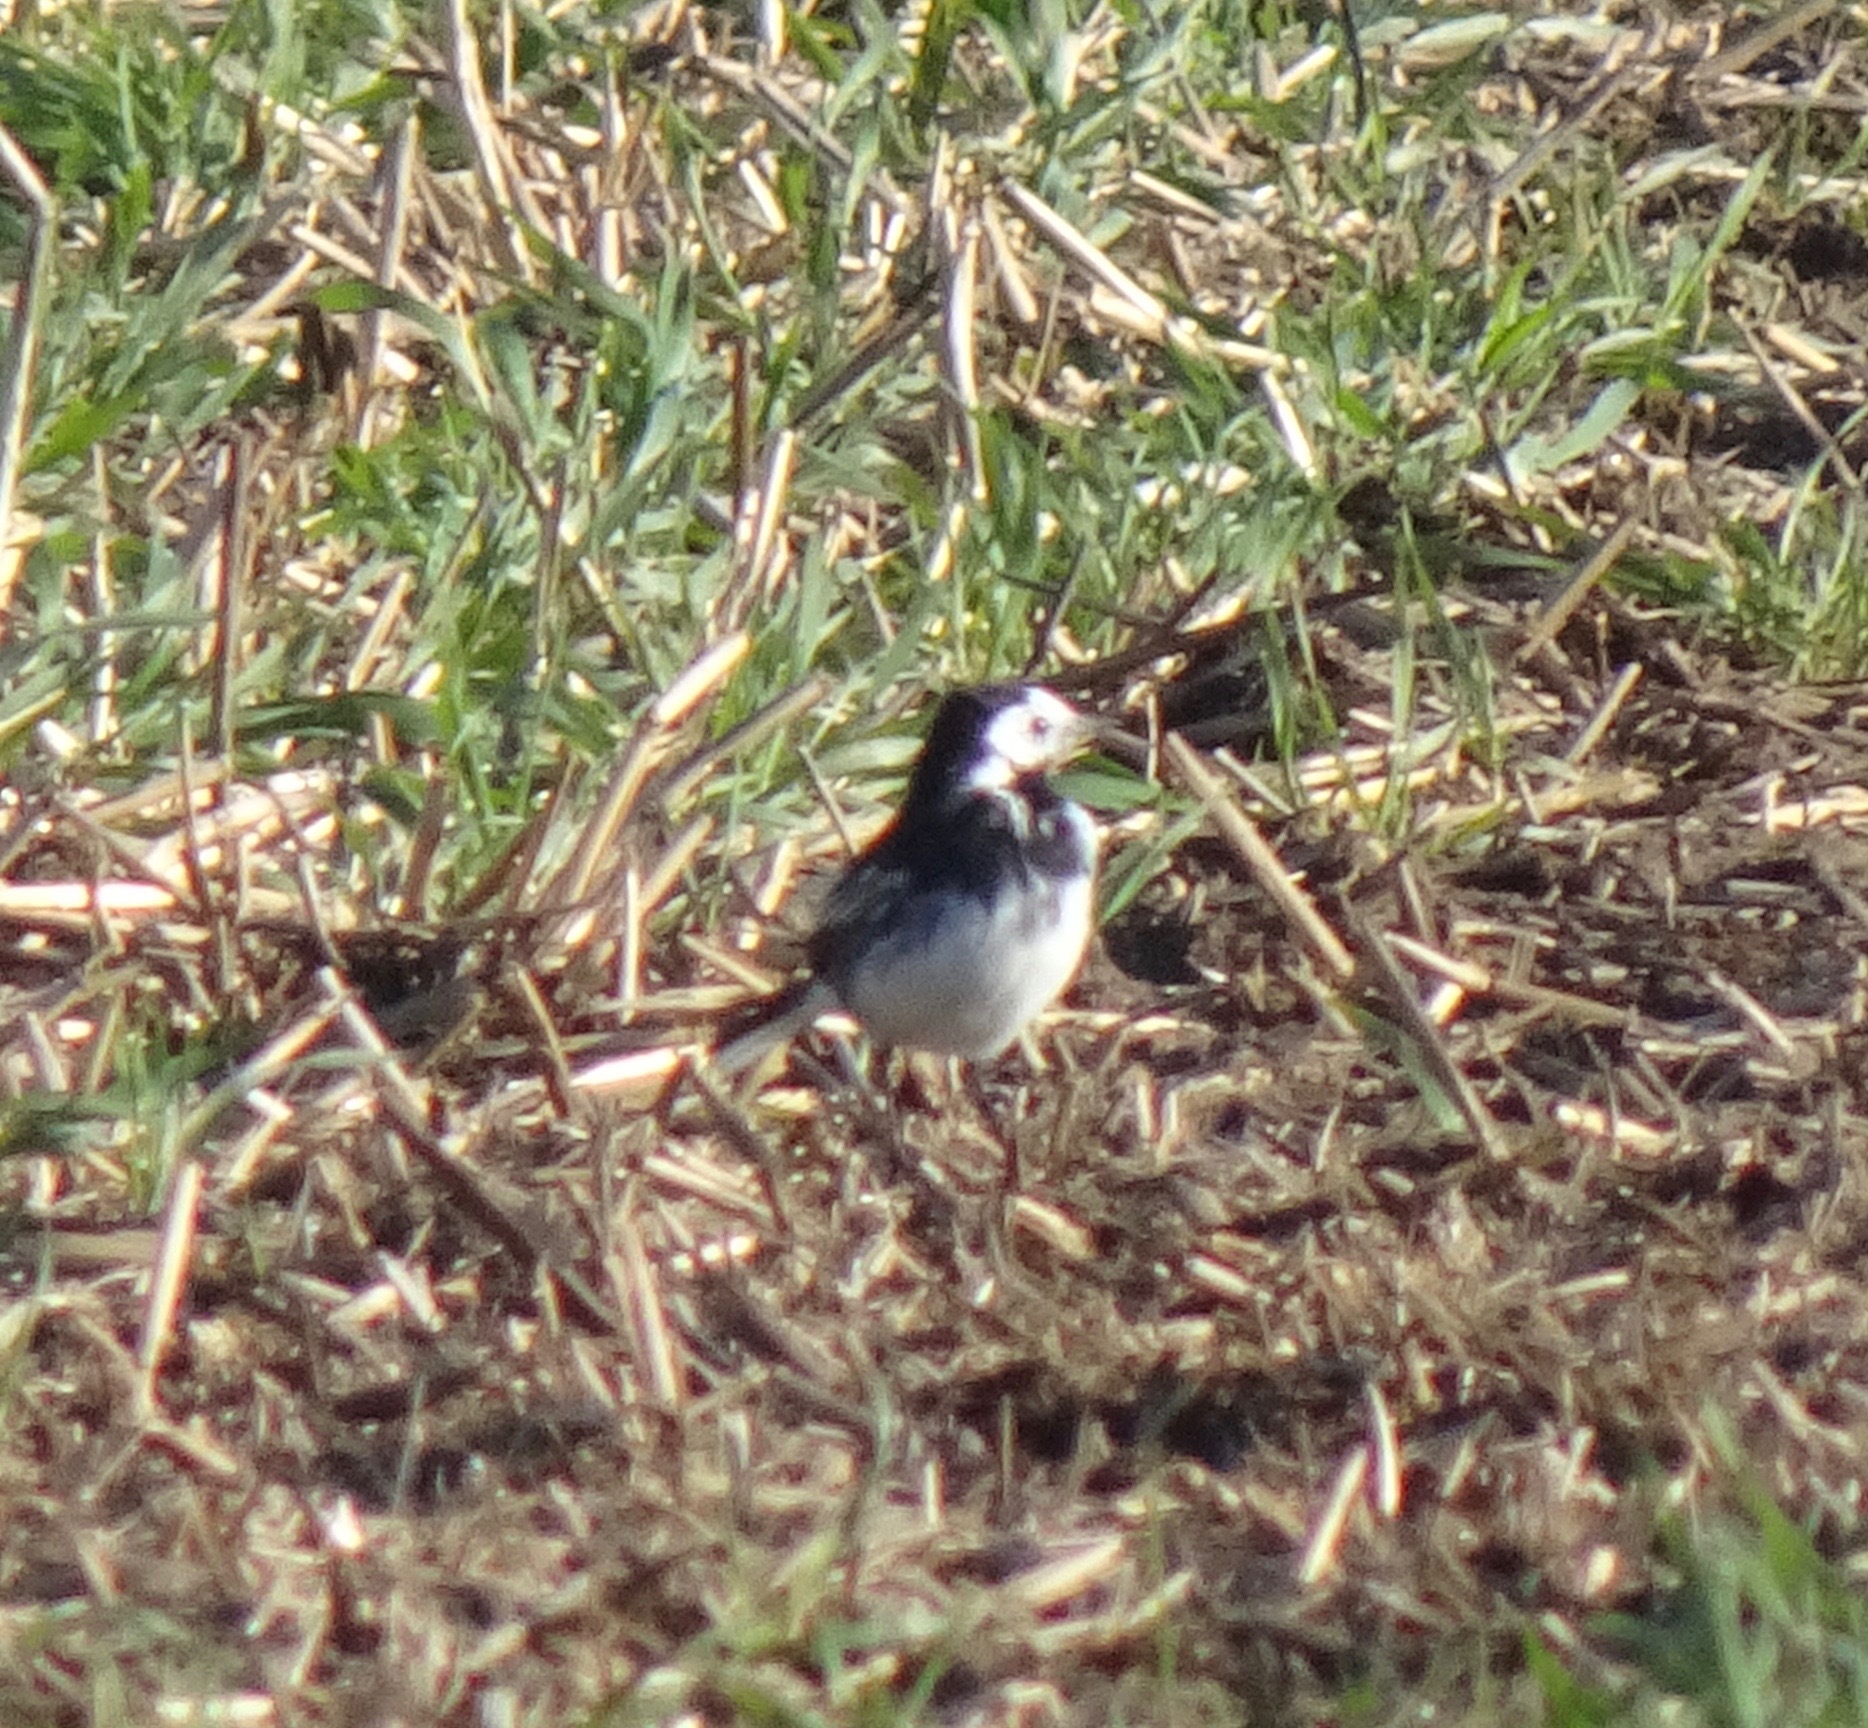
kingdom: Animalia
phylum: Chordata
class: Aves
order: Passeriformes
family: Motacillidae
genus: Motacilla
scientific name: Motacilla alba
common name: White wagtail
